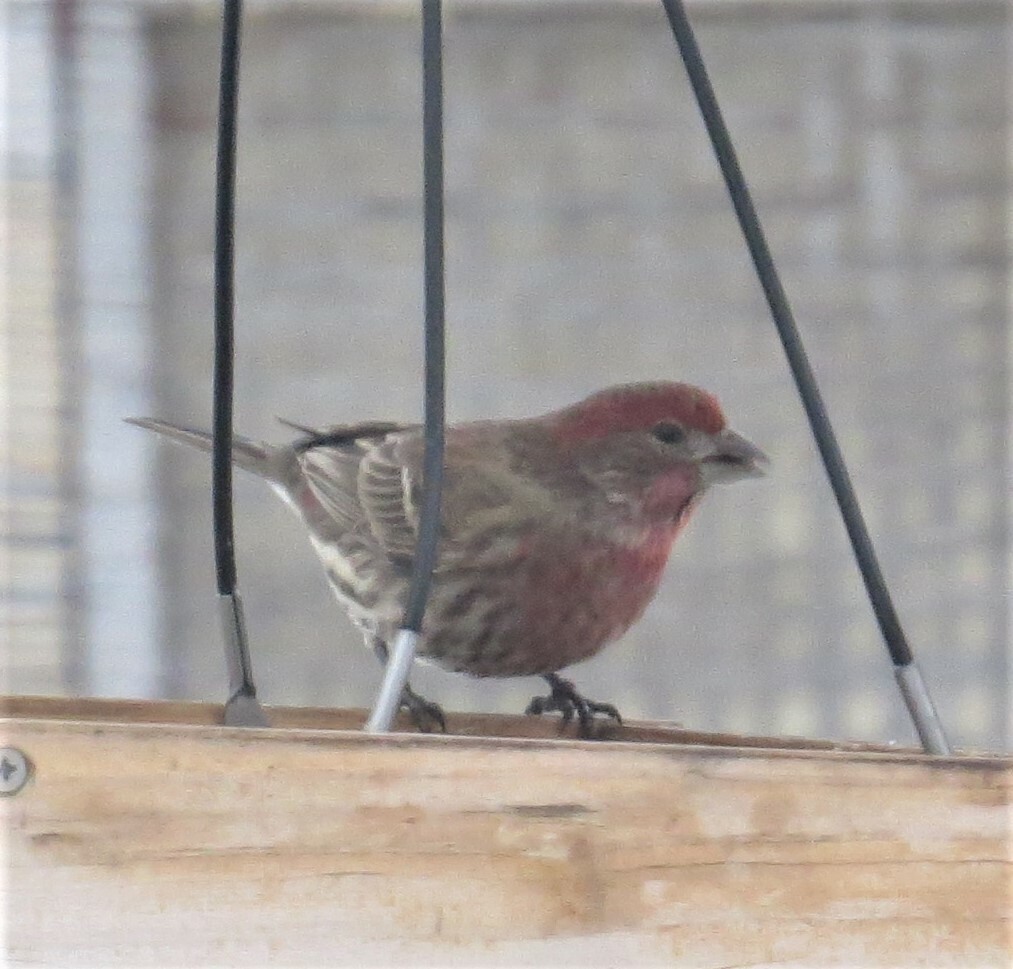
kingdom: Animalia
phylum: Chordata
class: Aves
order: Passeriformes
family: Fringillidae
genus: Haemorhous
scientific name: Haemorhous mexicanus
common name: House finch
